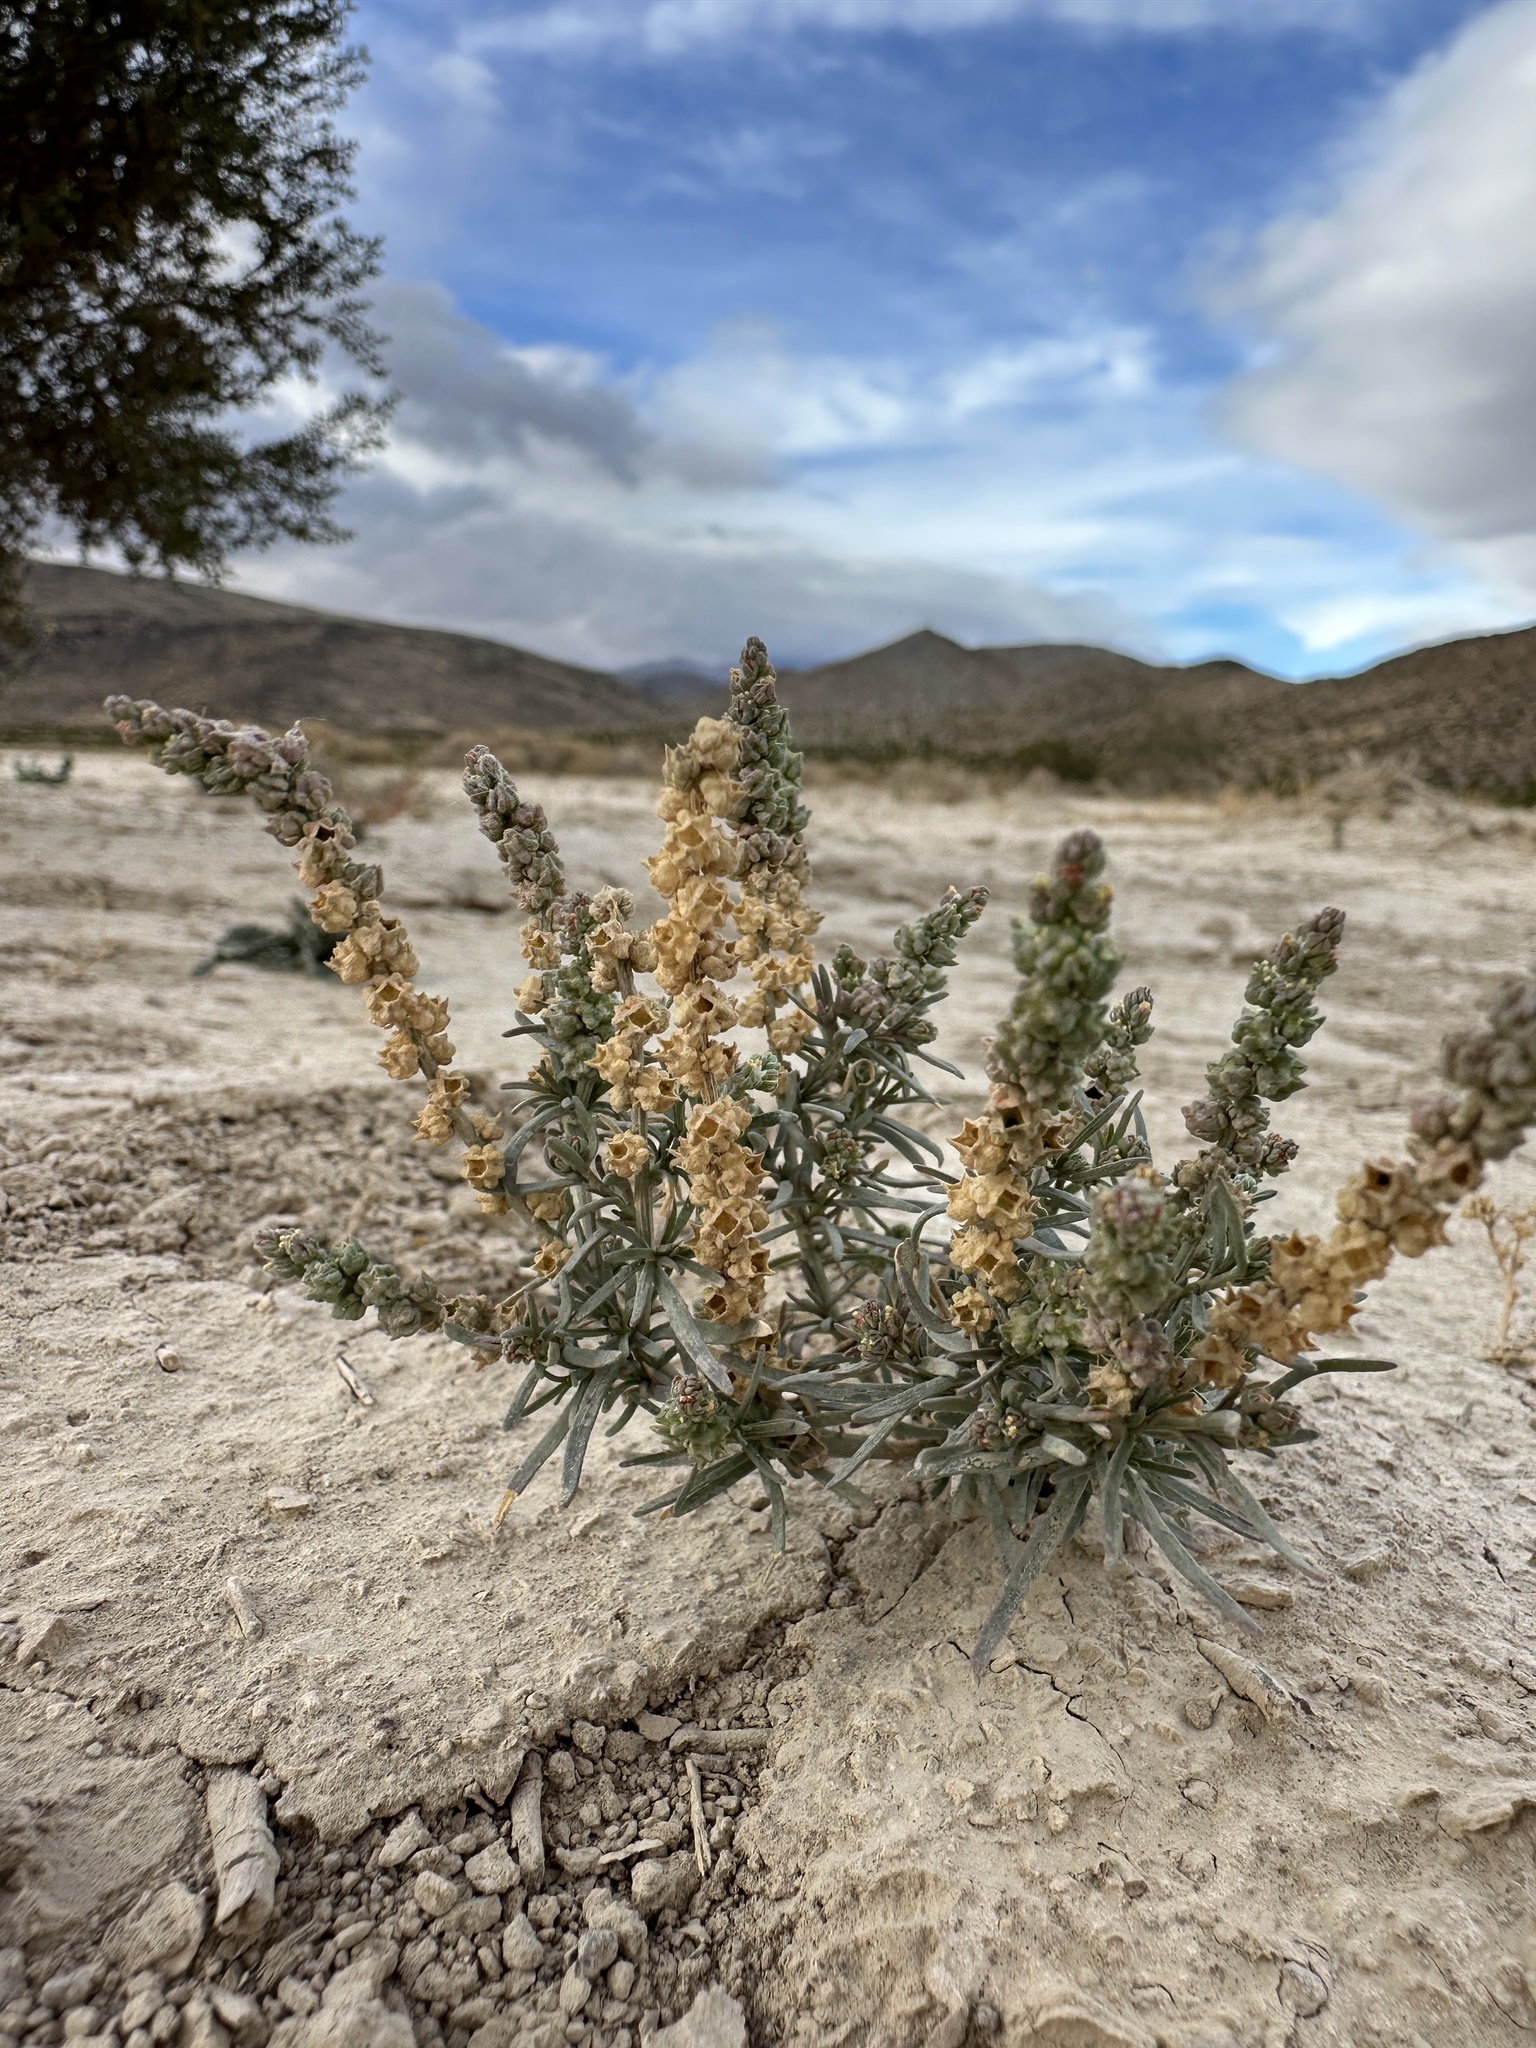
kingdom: Plantae
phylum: Tracheophyta
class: Magnoliopsida
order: Brassicales
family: Resedaceae
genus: Oligomeris
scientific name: Oligomeris linifolia
